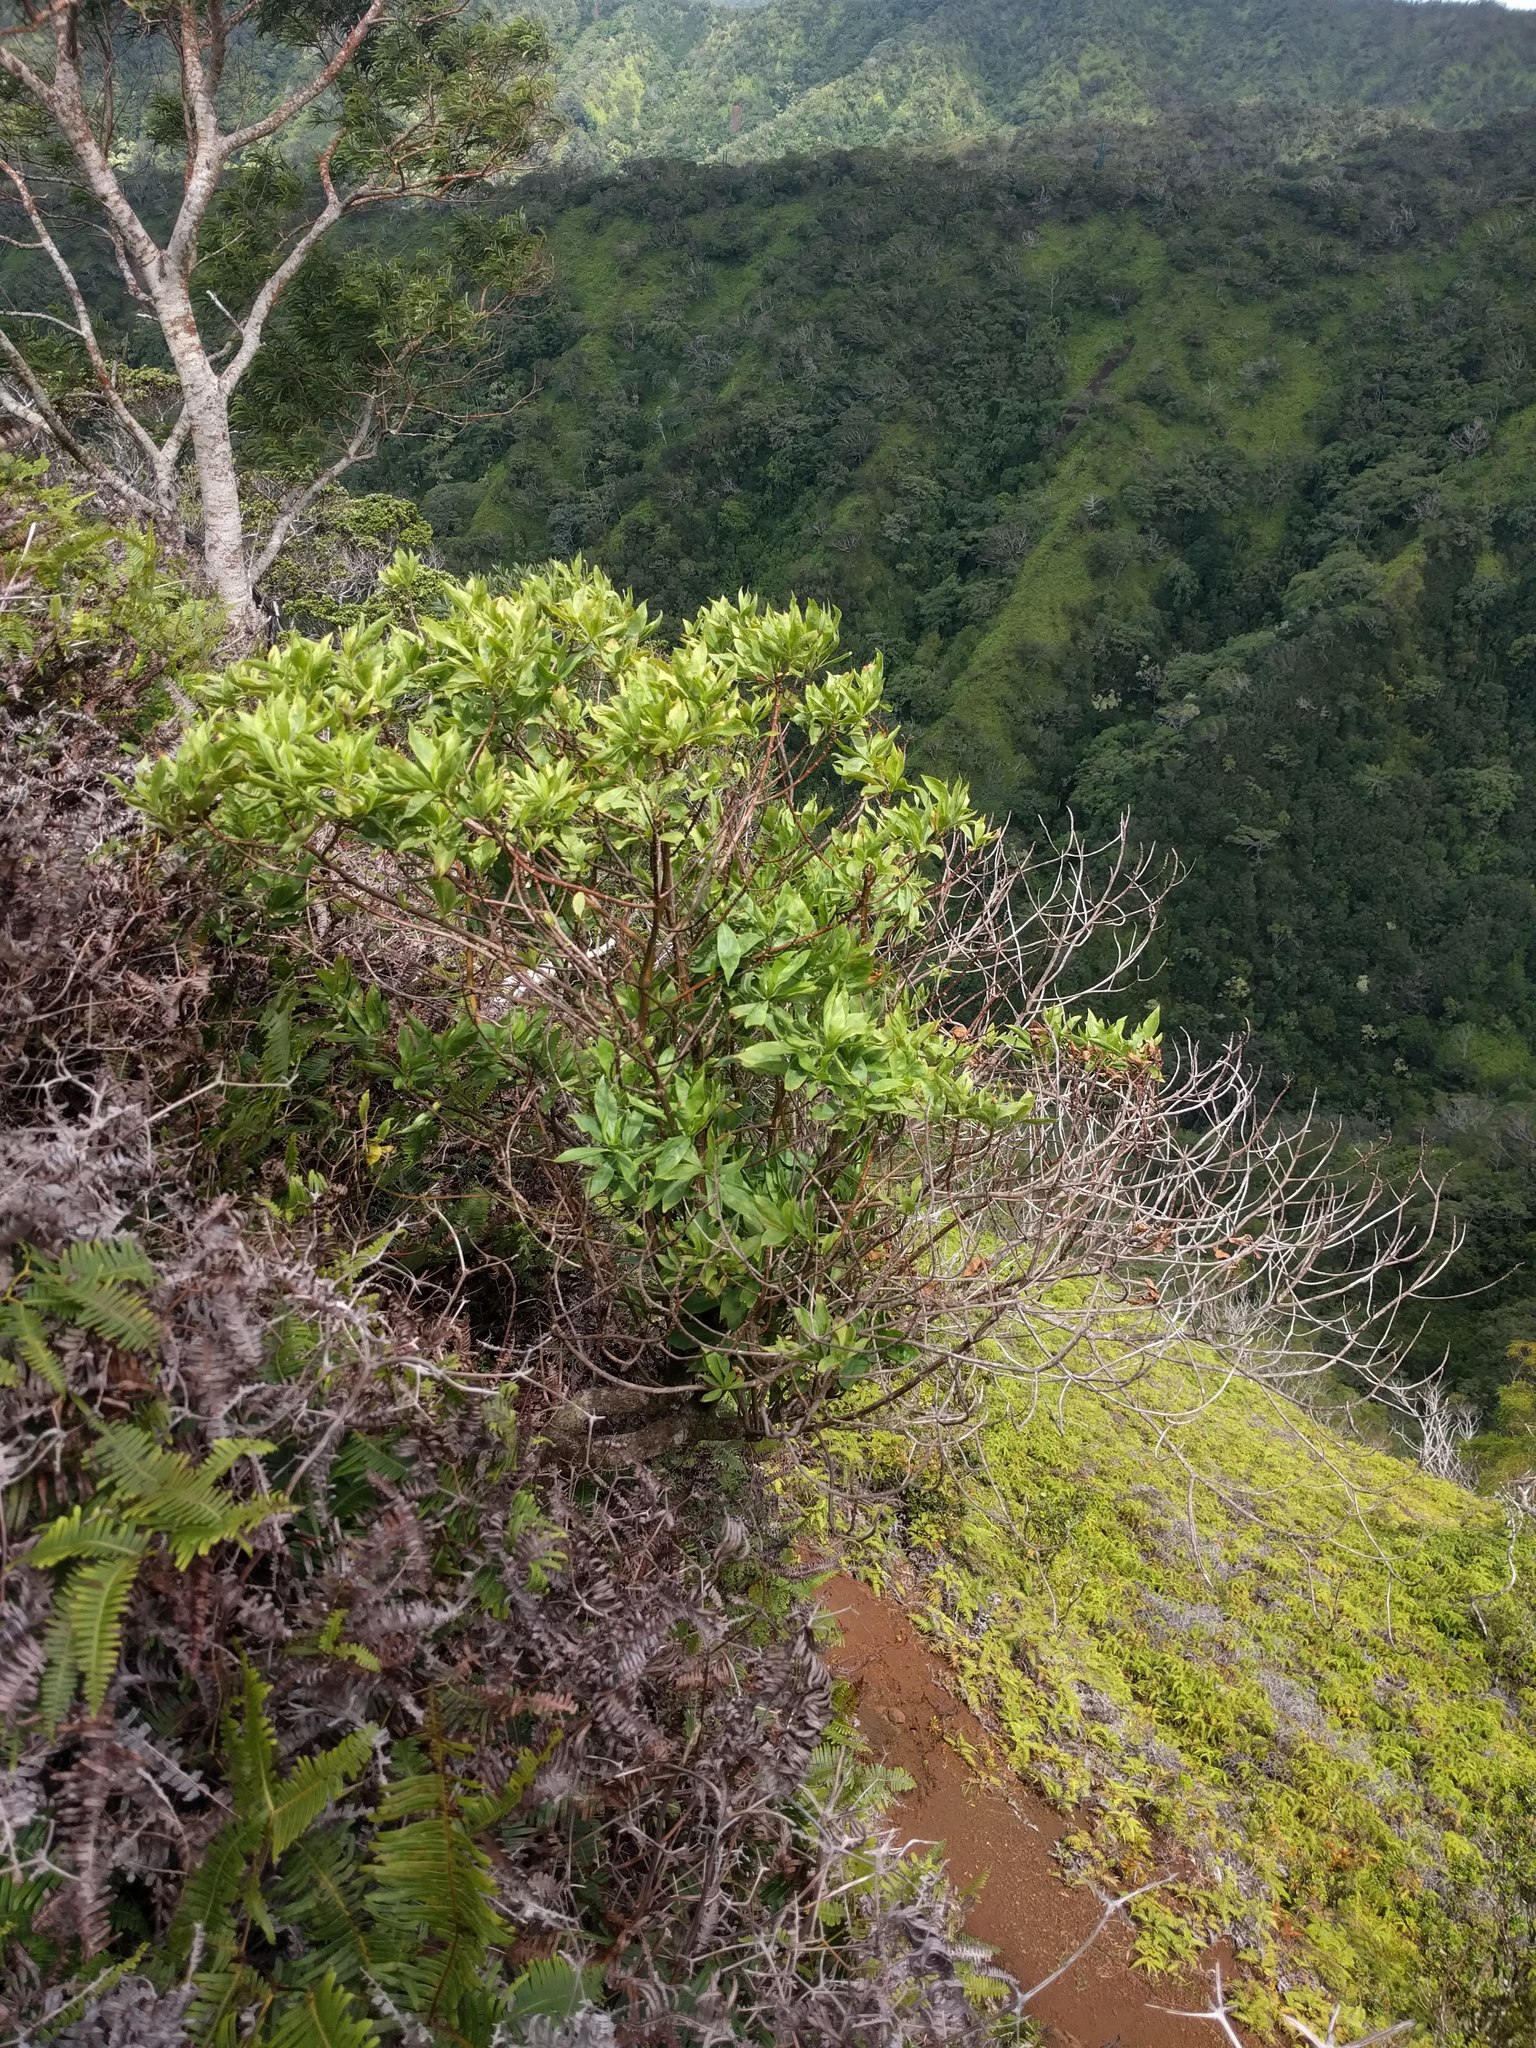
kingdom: Plantae
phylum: Tracheophyta
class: Magnoliopsida
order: Asterales
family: Goodeniaceae
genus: Scaevola
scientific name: Scaevola gaudichaudiana
